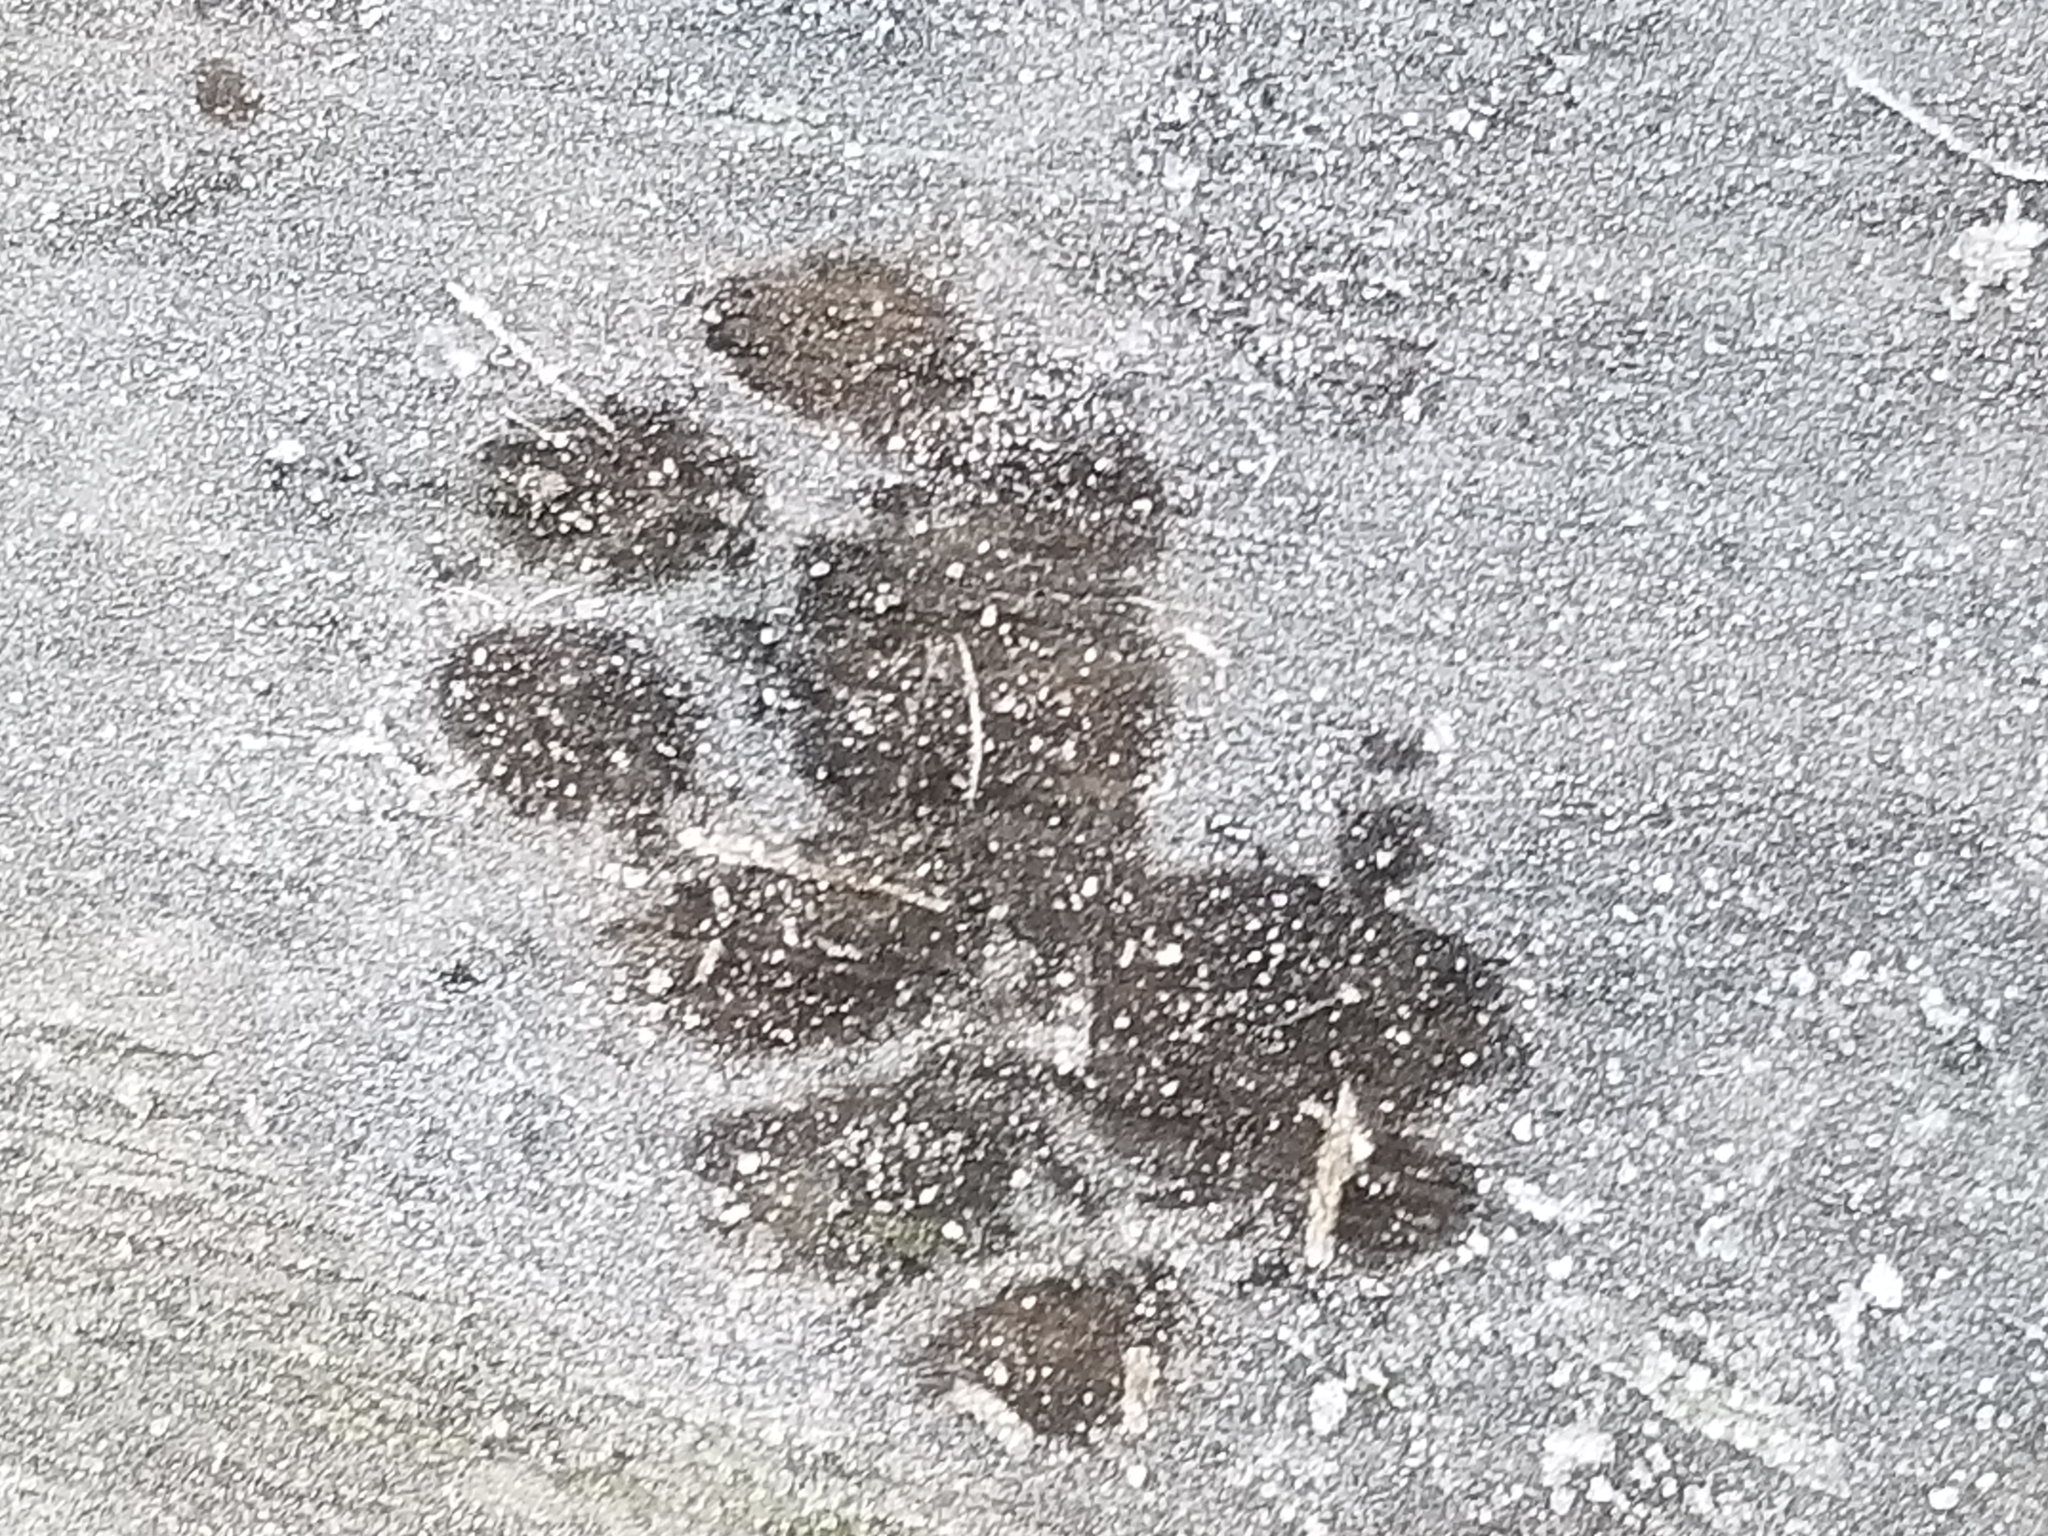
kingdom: Animalia
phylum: Chordata
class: Mammalia
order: Carnivora
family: Felidae
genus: Felis
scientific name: Felis catus
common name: Domestic cat
